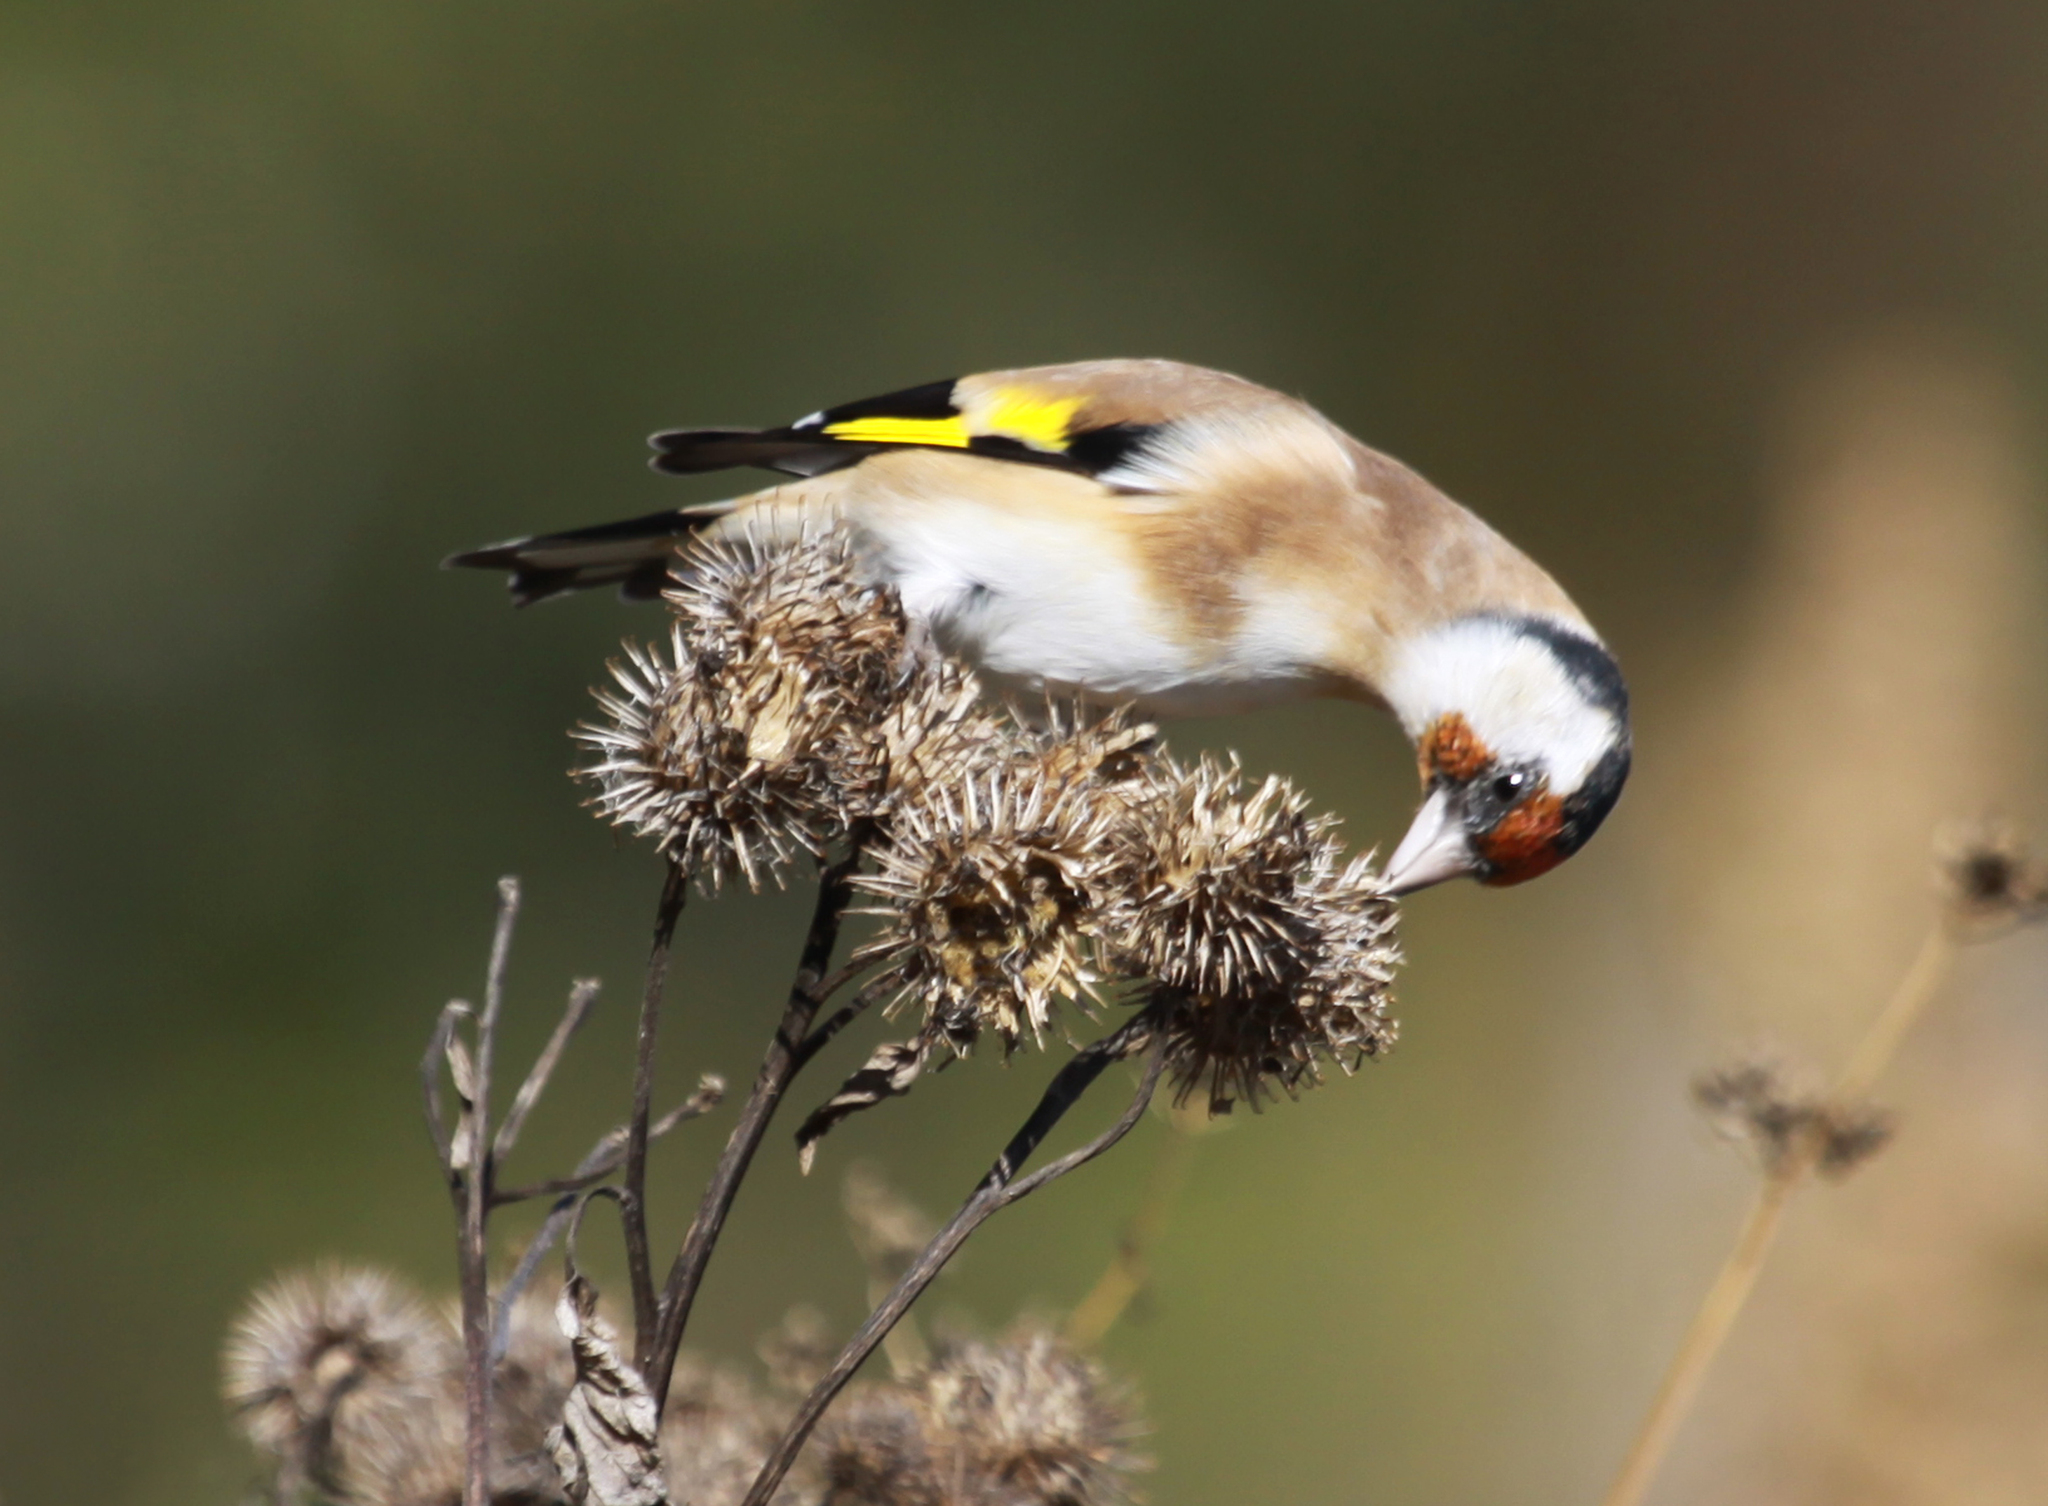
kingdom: Animalia
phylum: Chordata
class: Aves
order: Passeriformes
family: Fringillidae
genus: Carduelis
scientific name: Carduelis carduelis
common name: European goldfinch
